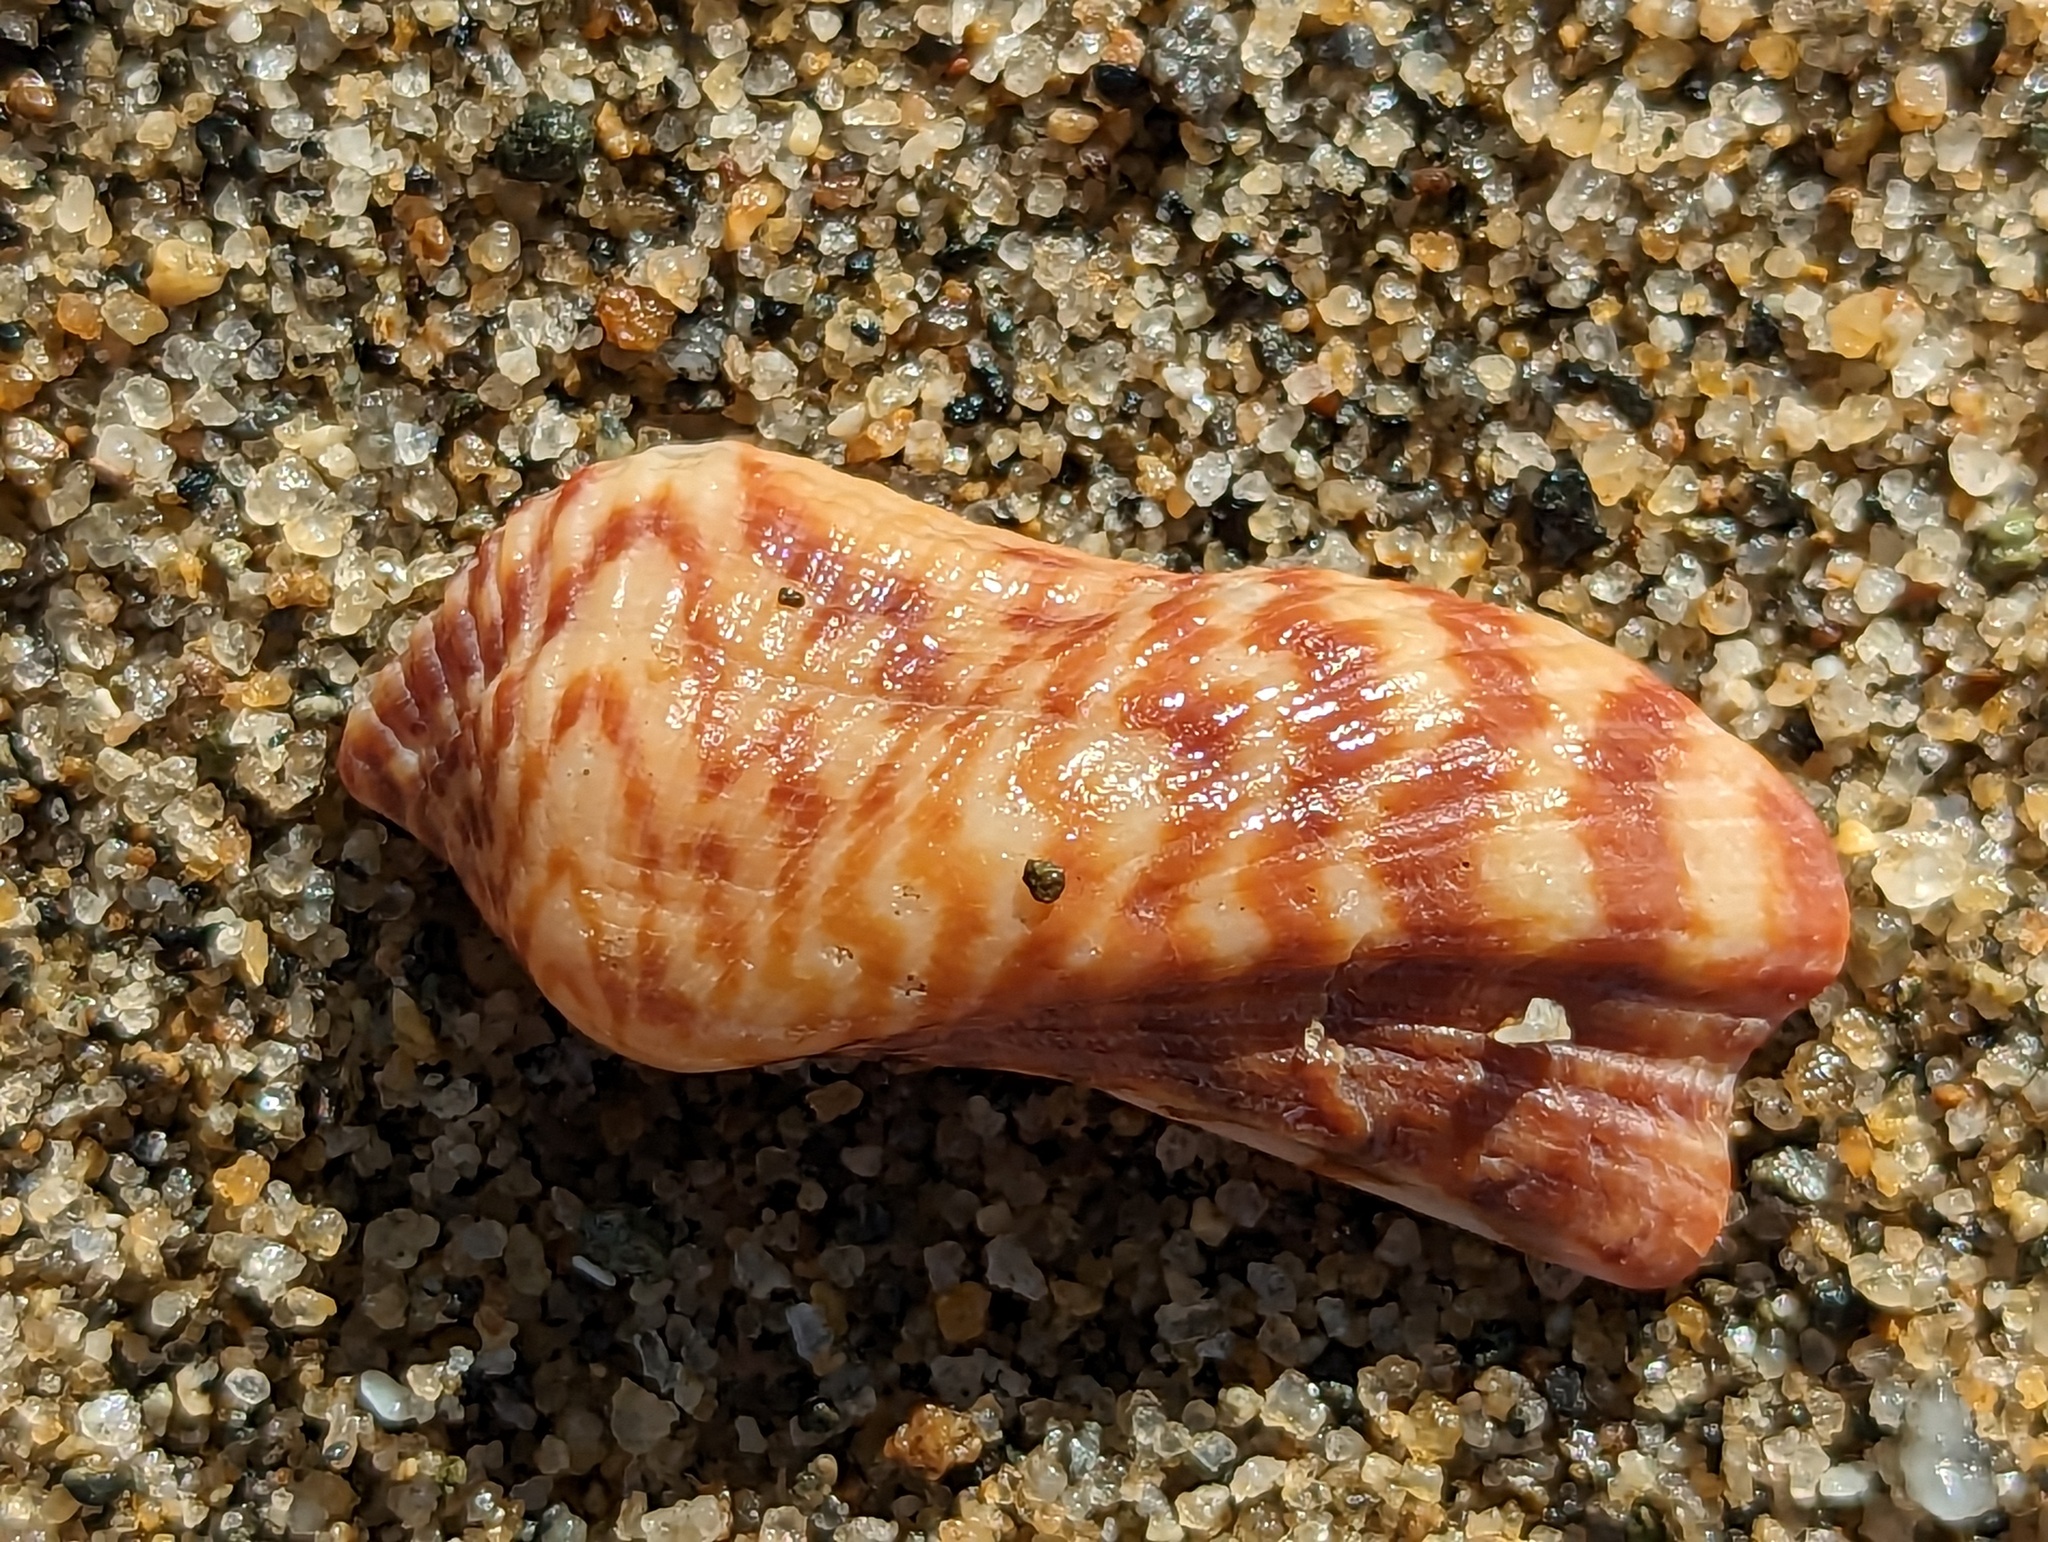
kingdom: Animalia
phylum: Mollusca
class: Bivalvia
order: Arcida
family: Arcidae
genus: Arca
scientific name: Arca zebra
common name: Atlantic turkey wing
